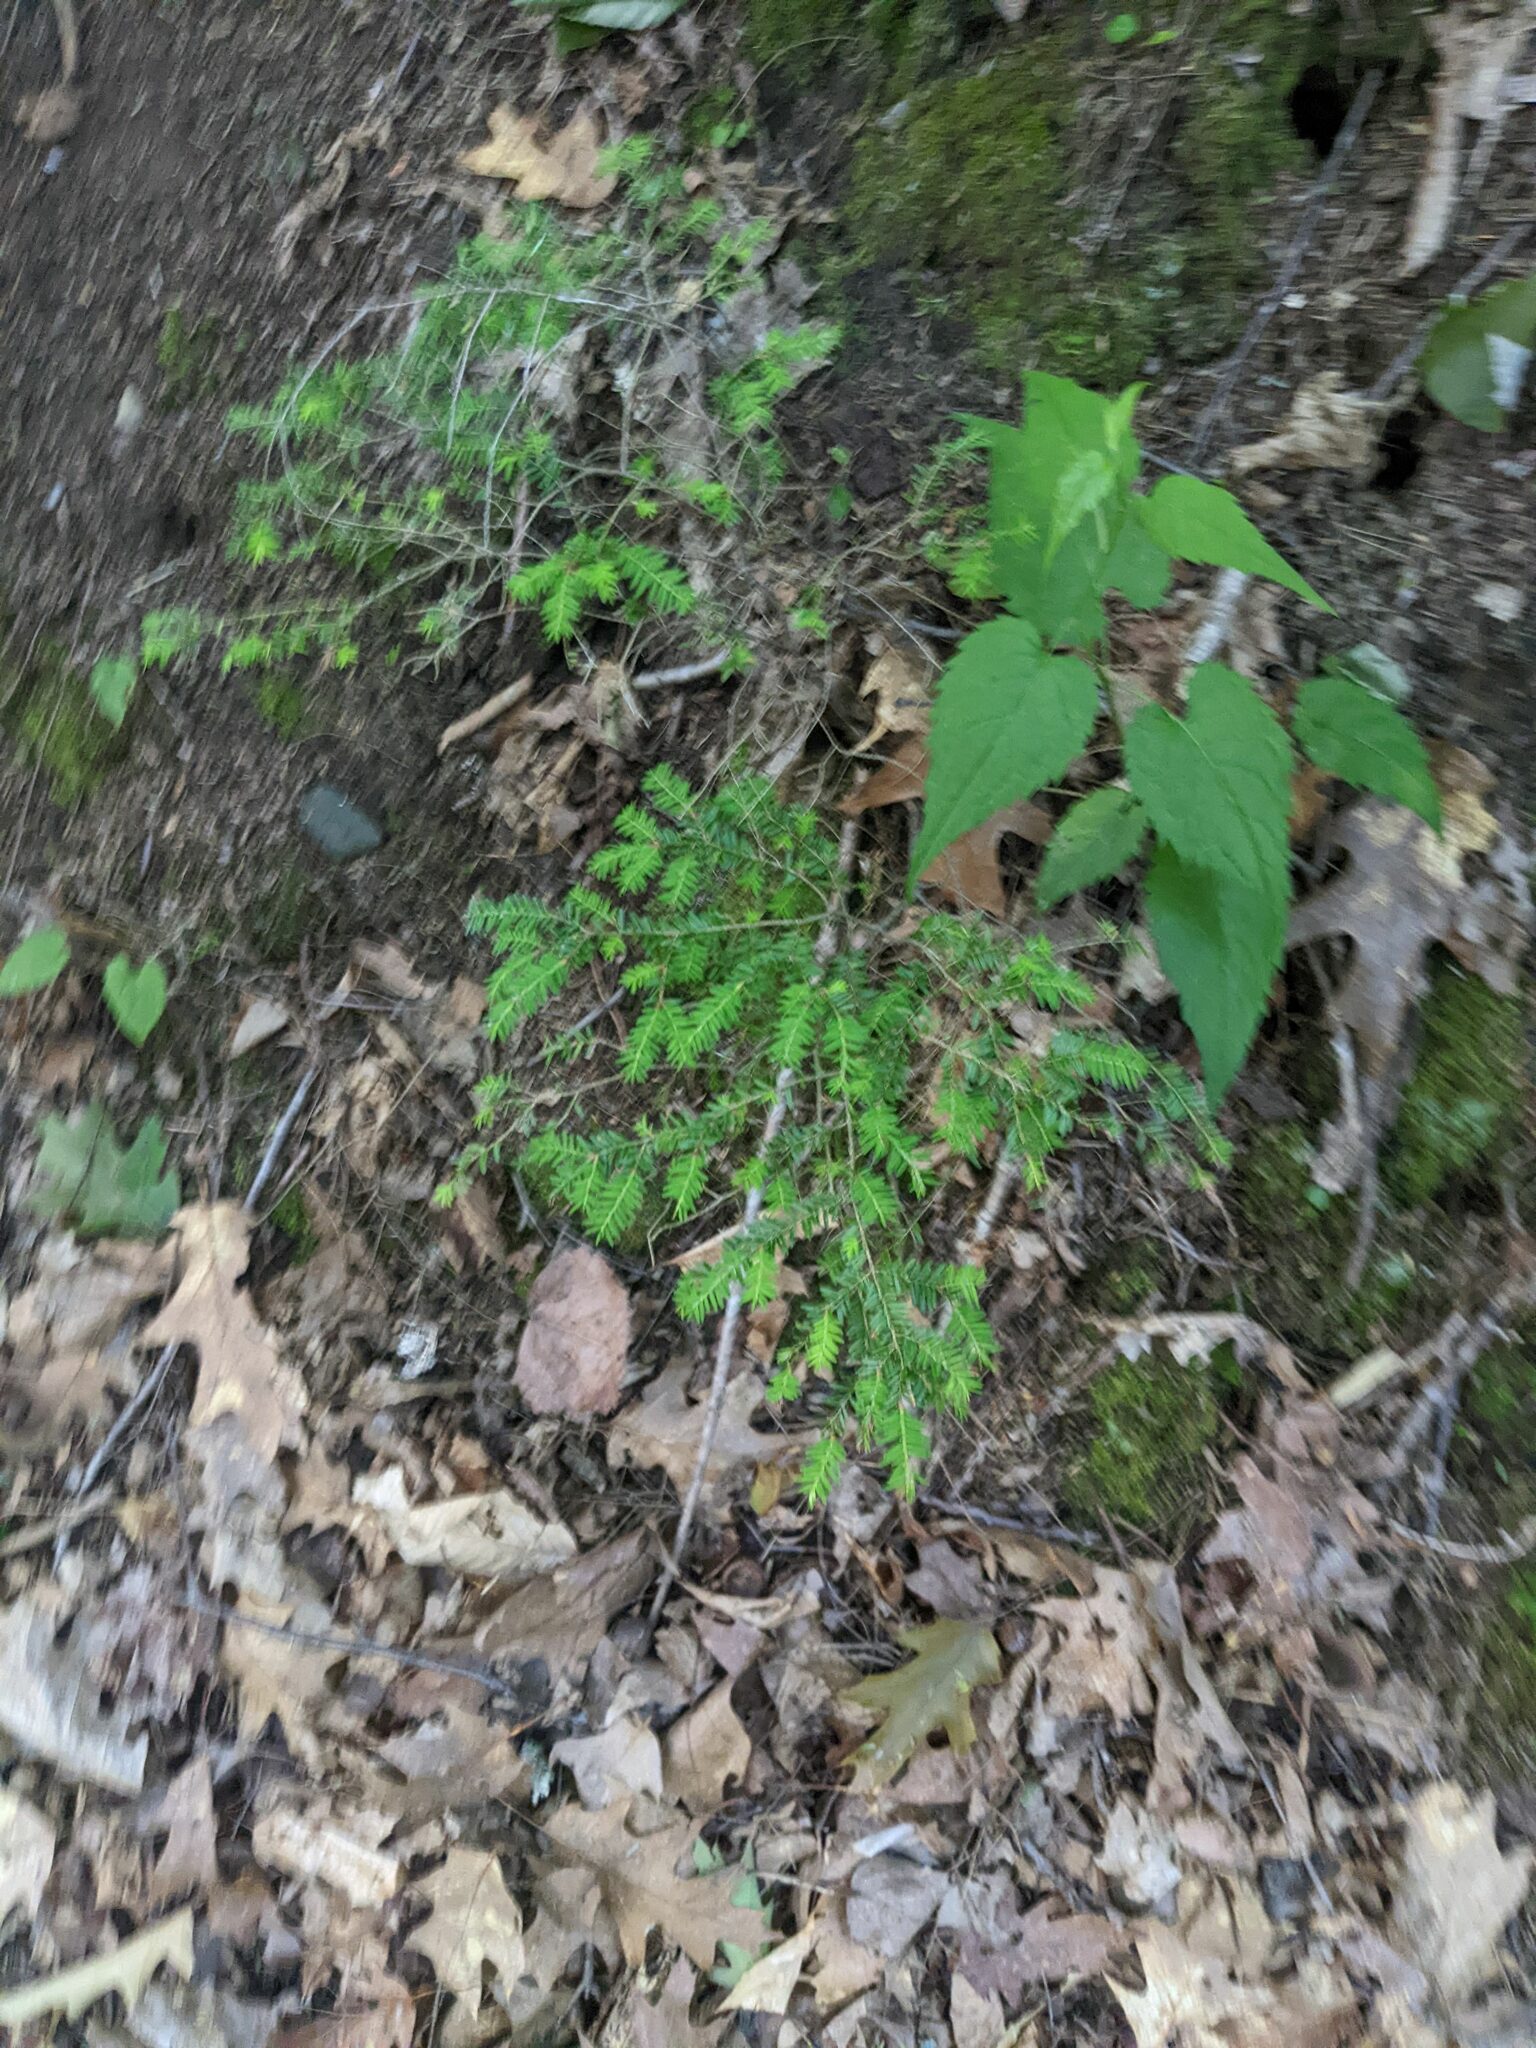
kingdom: Plantae
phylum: Tracheophyta
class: Pinopsida
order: Pinales
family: Pinaceae
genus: Tsuga
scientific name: Tsuga canadensis
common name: Eastern hemlock
